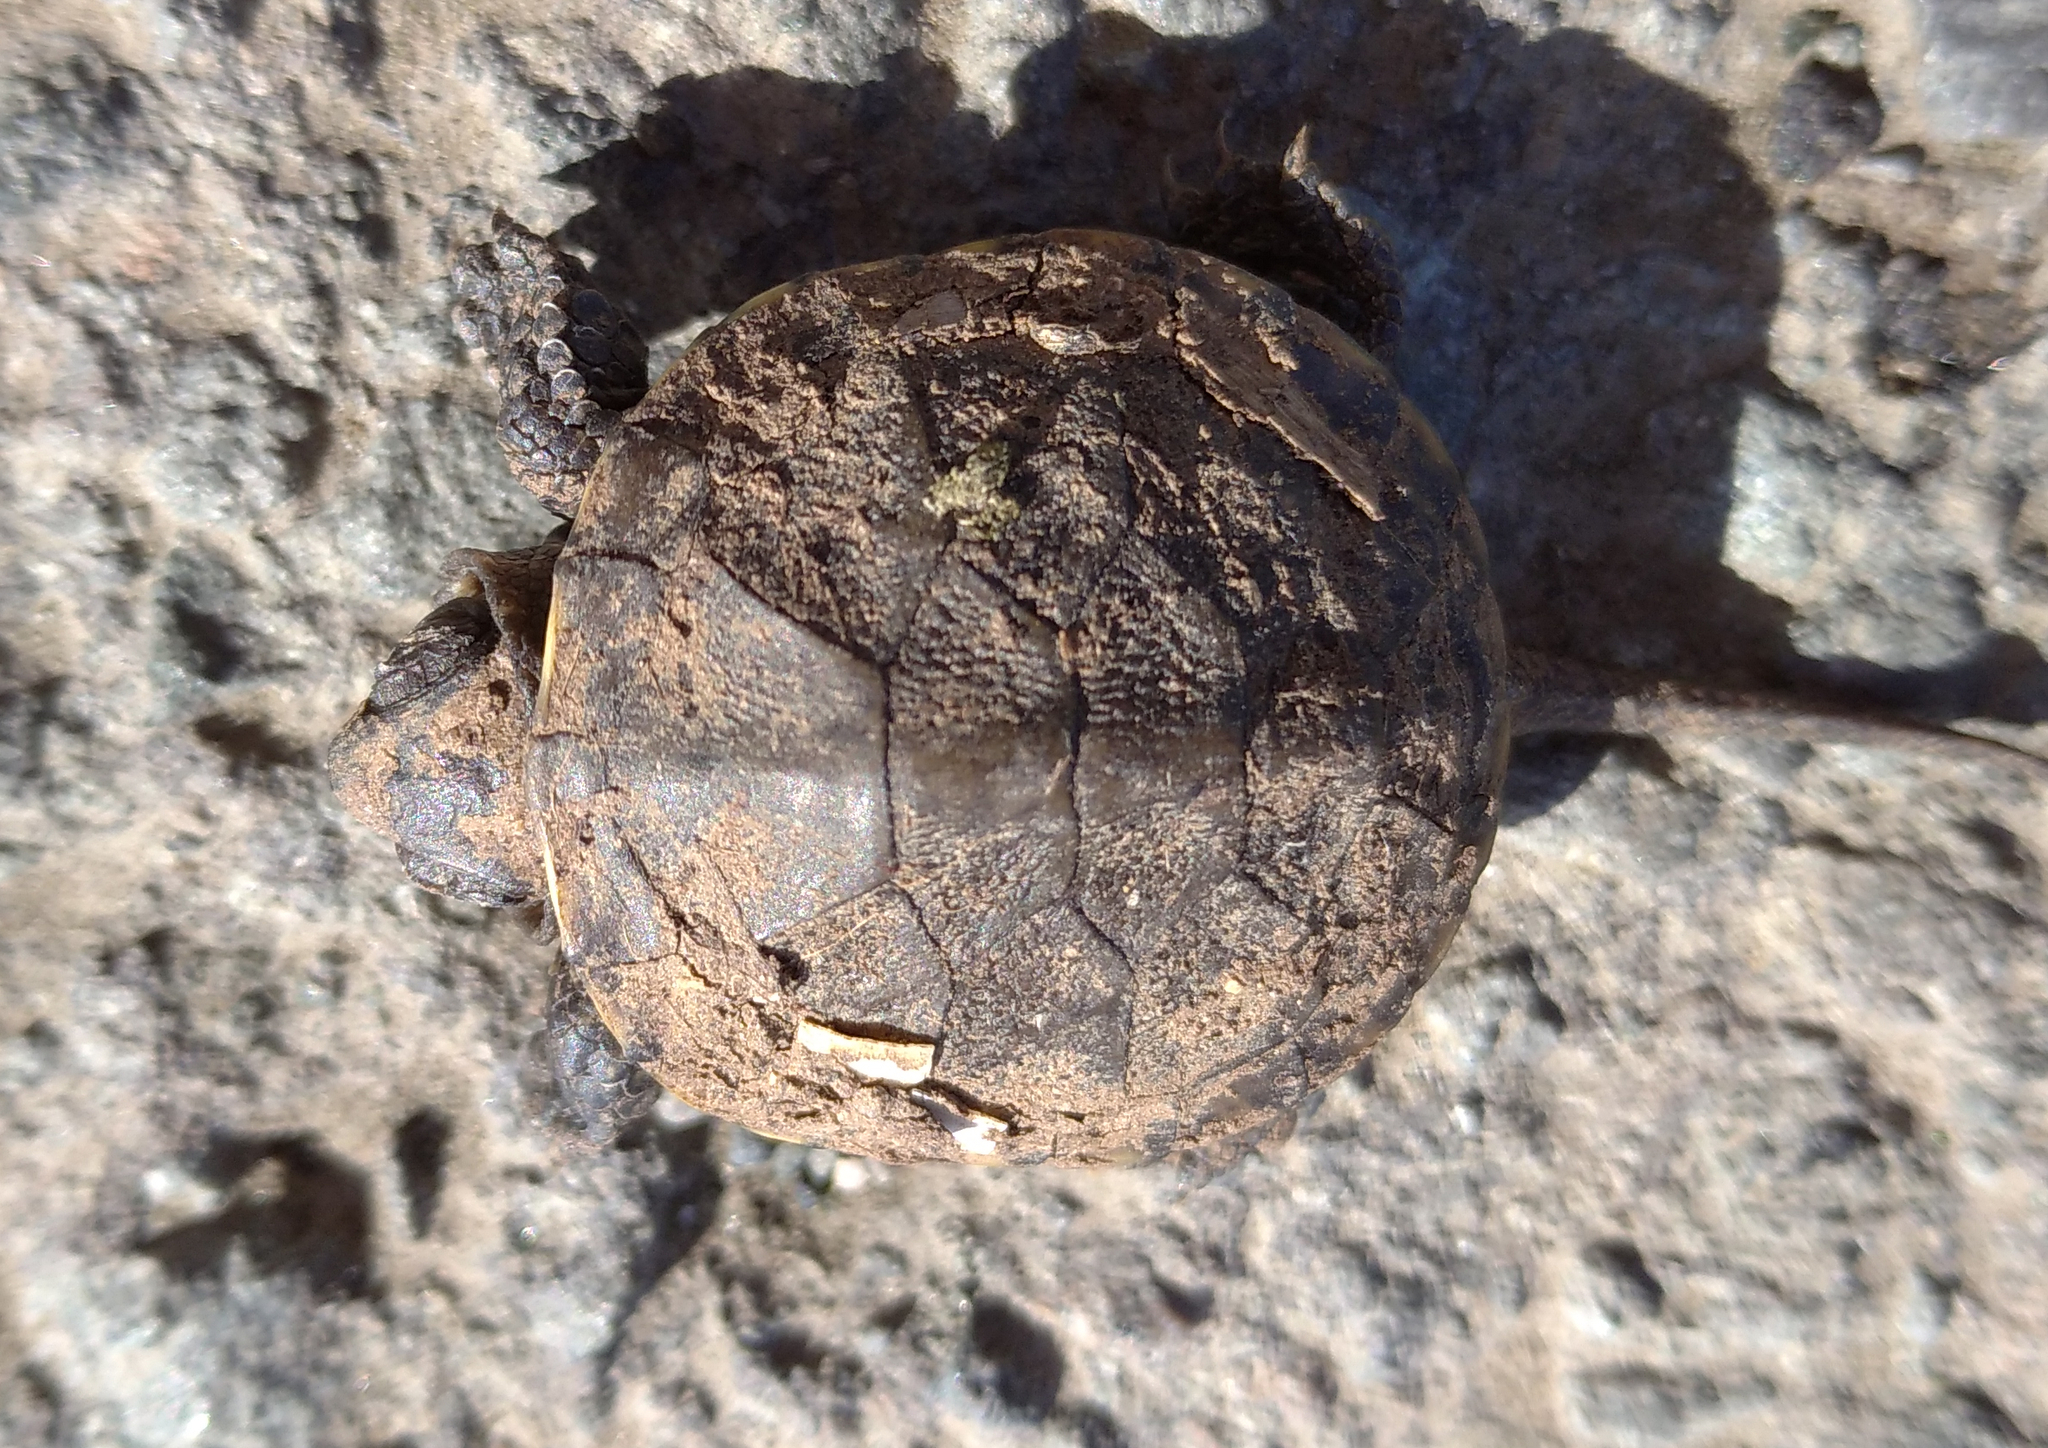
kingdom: Animalia
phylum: Chordata
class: Testudines
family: Emydidae
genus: Emys
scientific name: Emys orbicularis
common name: European pond turtle
